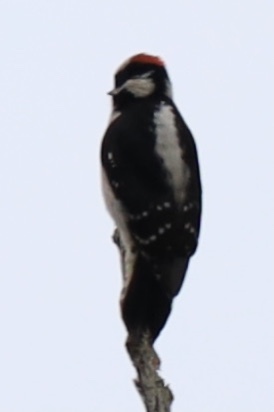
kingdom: Animalia
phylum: Chordata
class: Aves
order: Piciformes
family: Picidae
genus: Dryobates
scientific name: Dryobates pubescens
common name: Downy woodpecker
